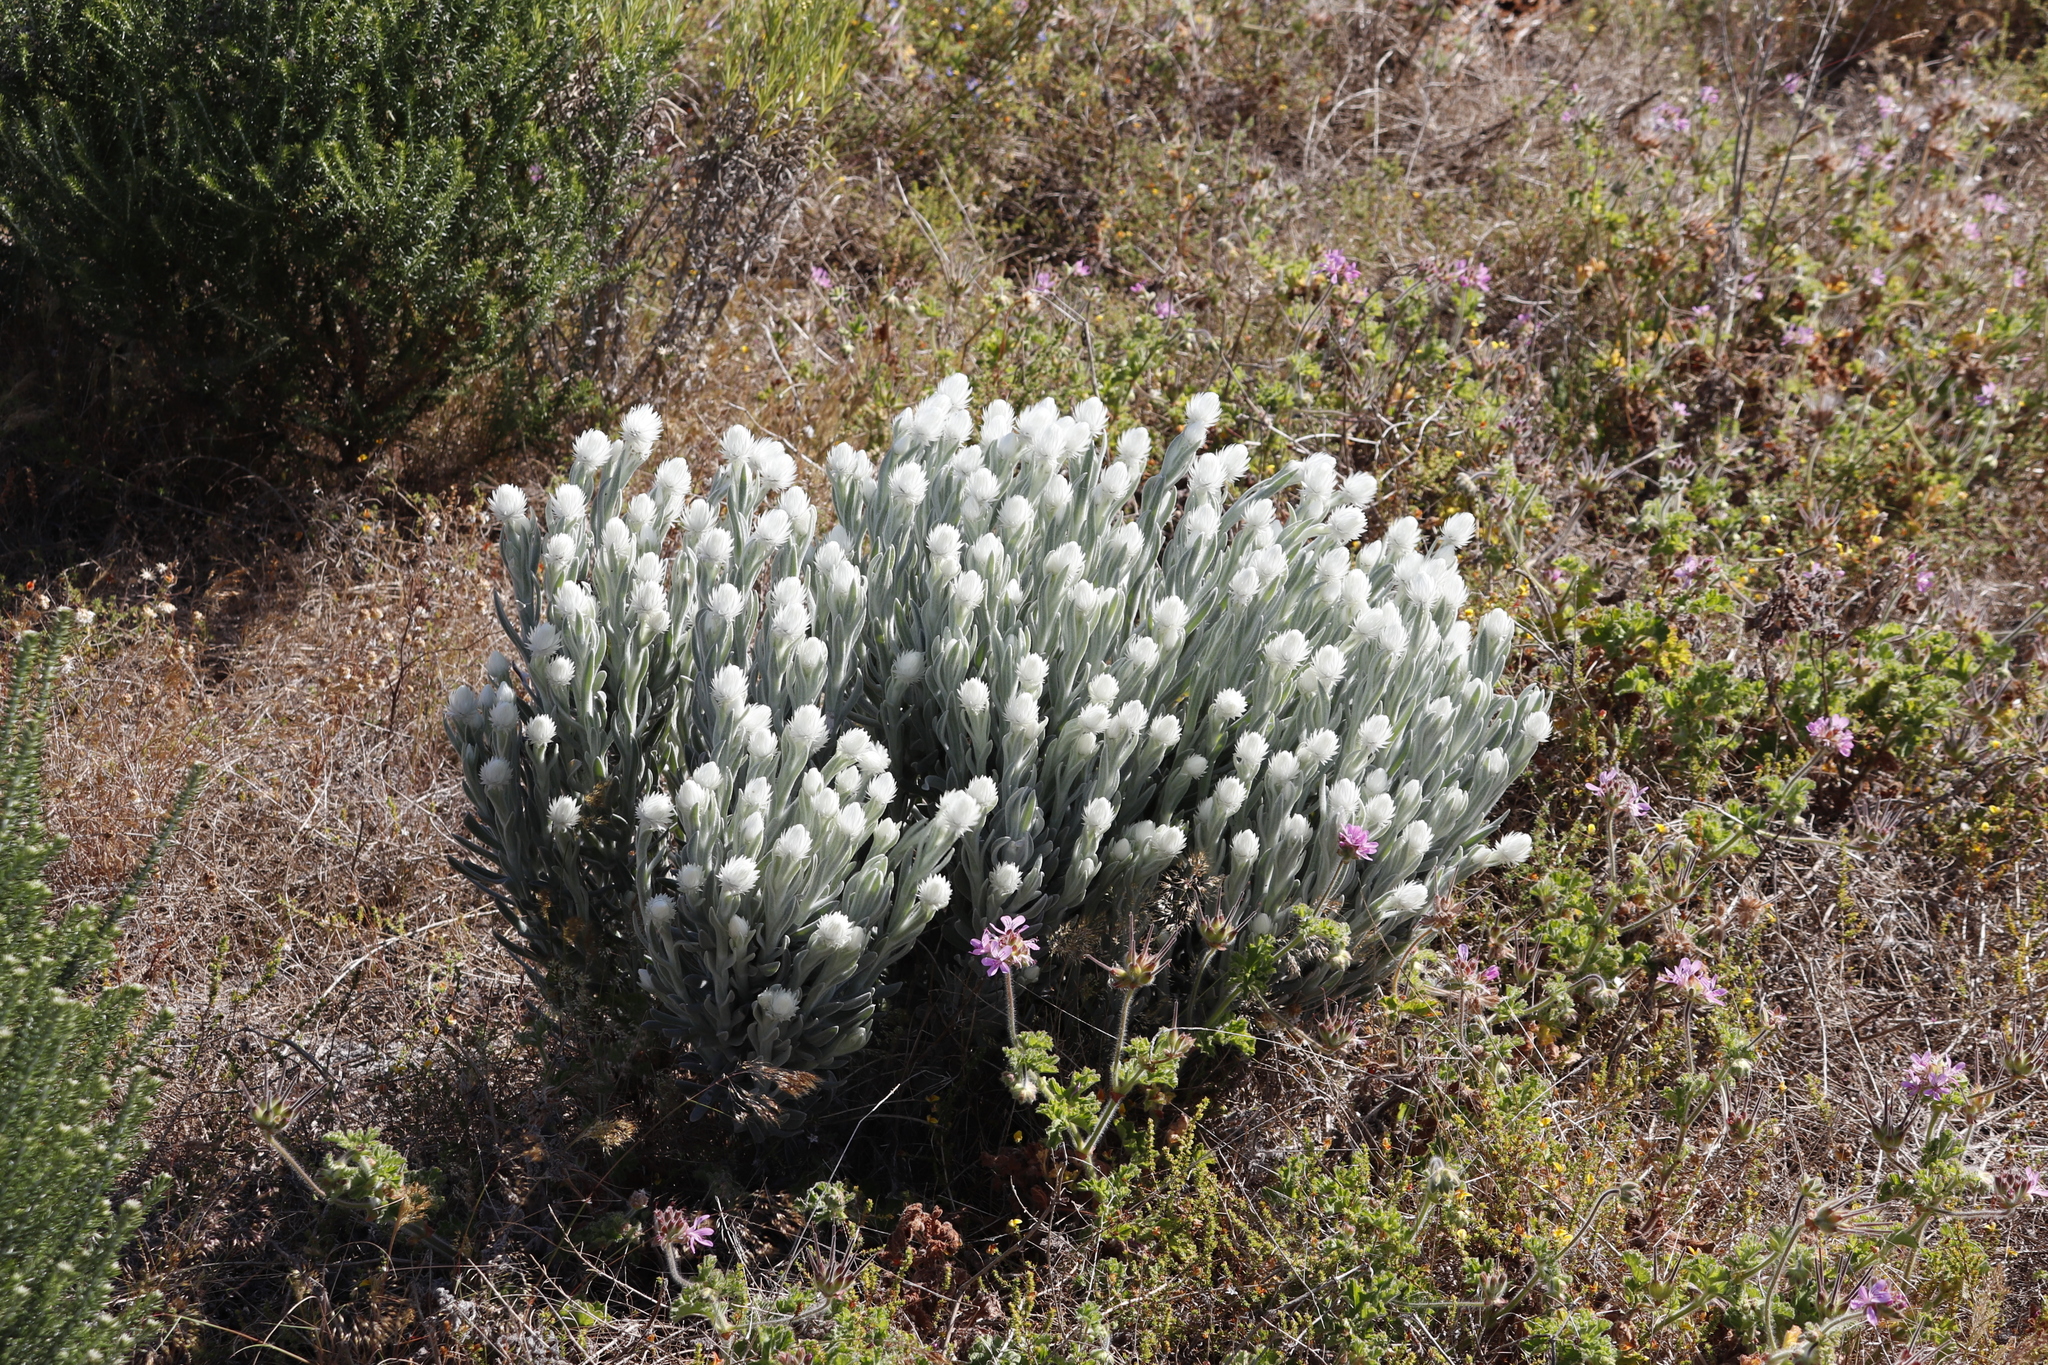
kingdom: Plantae
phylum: Tracheophyta
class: Magnoliopsida
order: Asterales
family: Asteraceae
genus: Syncarpha
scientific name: Syncarpha vestita
